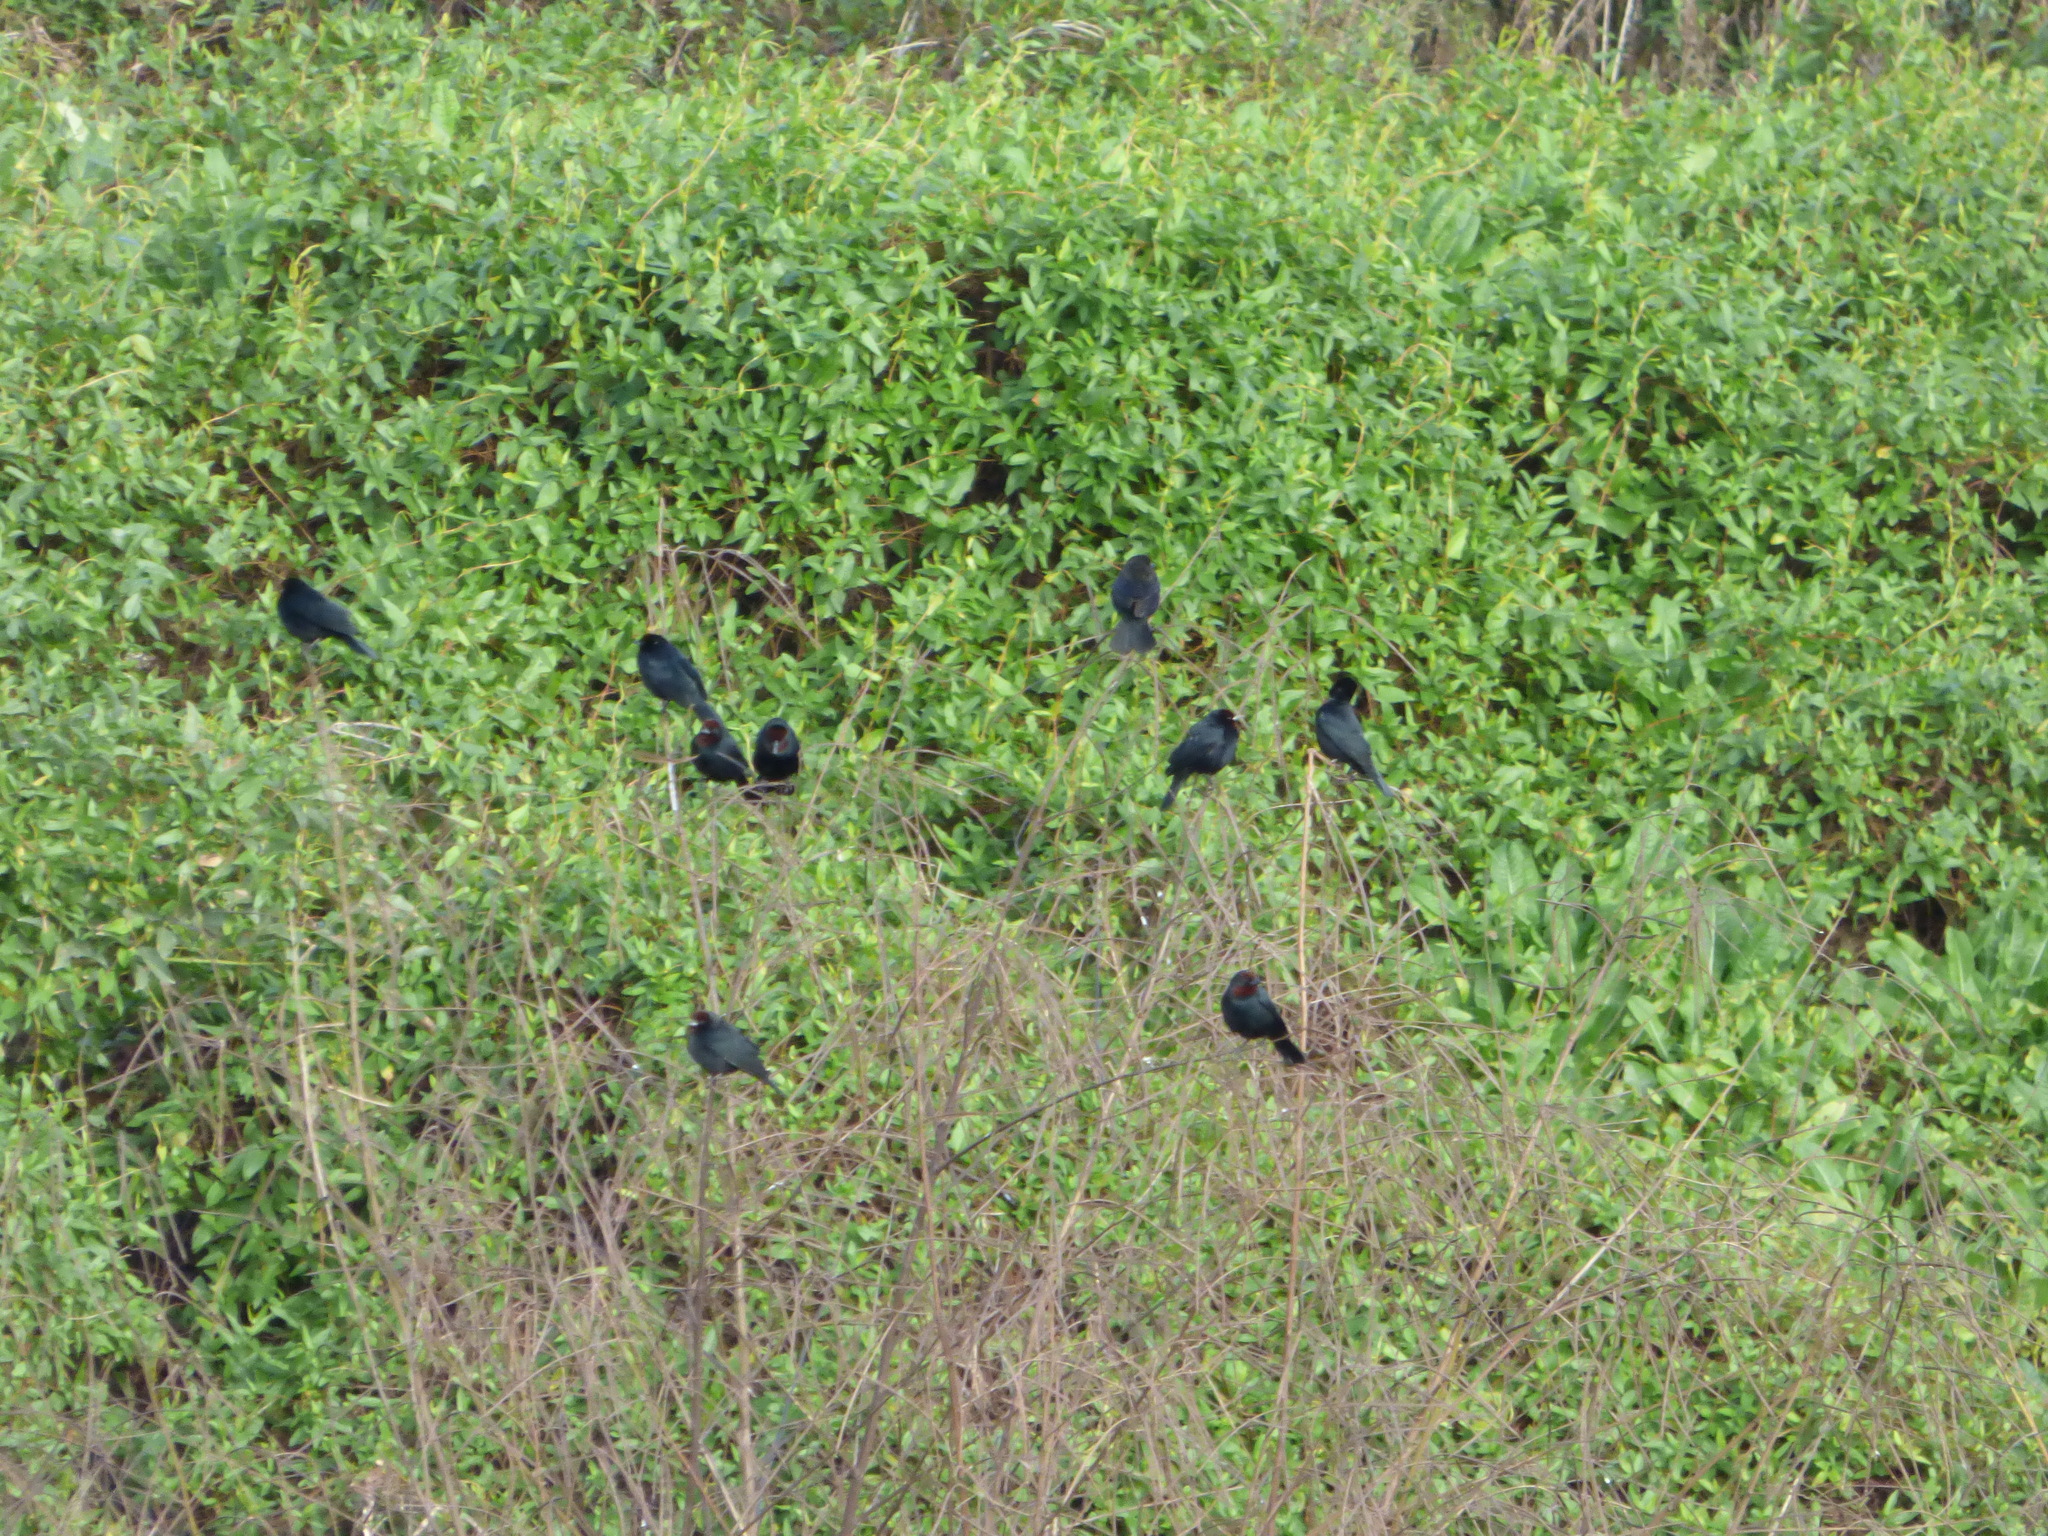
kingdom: Animalia
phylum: Chordata
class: Aves
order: Passeriformes
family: Icteridae
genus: Chrysomus
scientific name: Chrysomus ruficapillus
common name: Chestnut-capped blackbird
